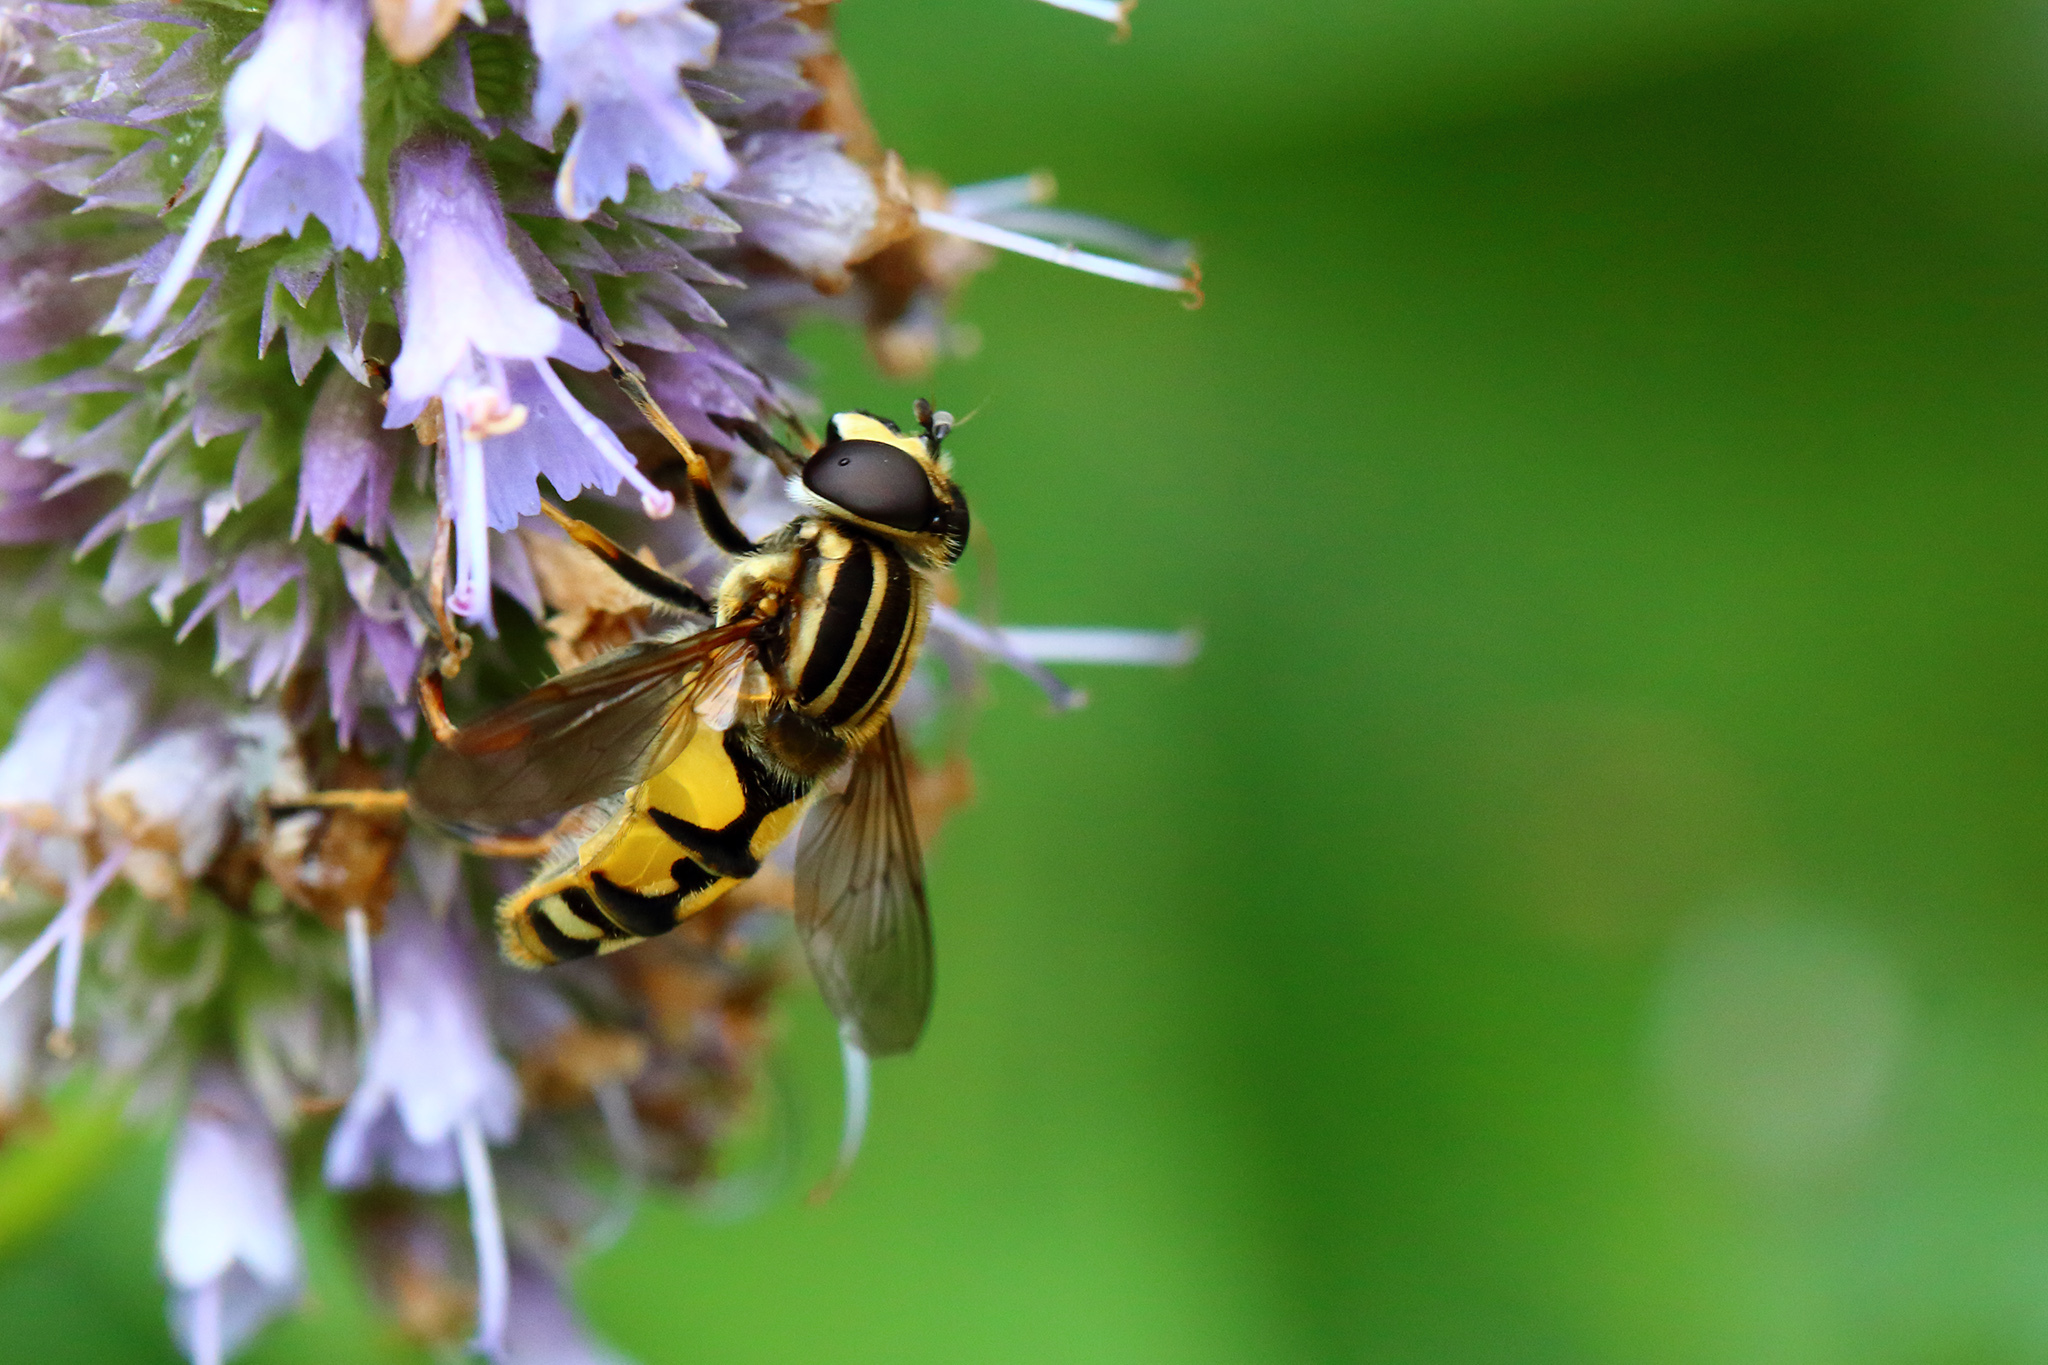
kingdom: Animalia
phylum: Arthropoda
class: Insecta
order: Diptera
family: Syrphidae
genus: Helophilus
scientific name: Helophilus pendulus
